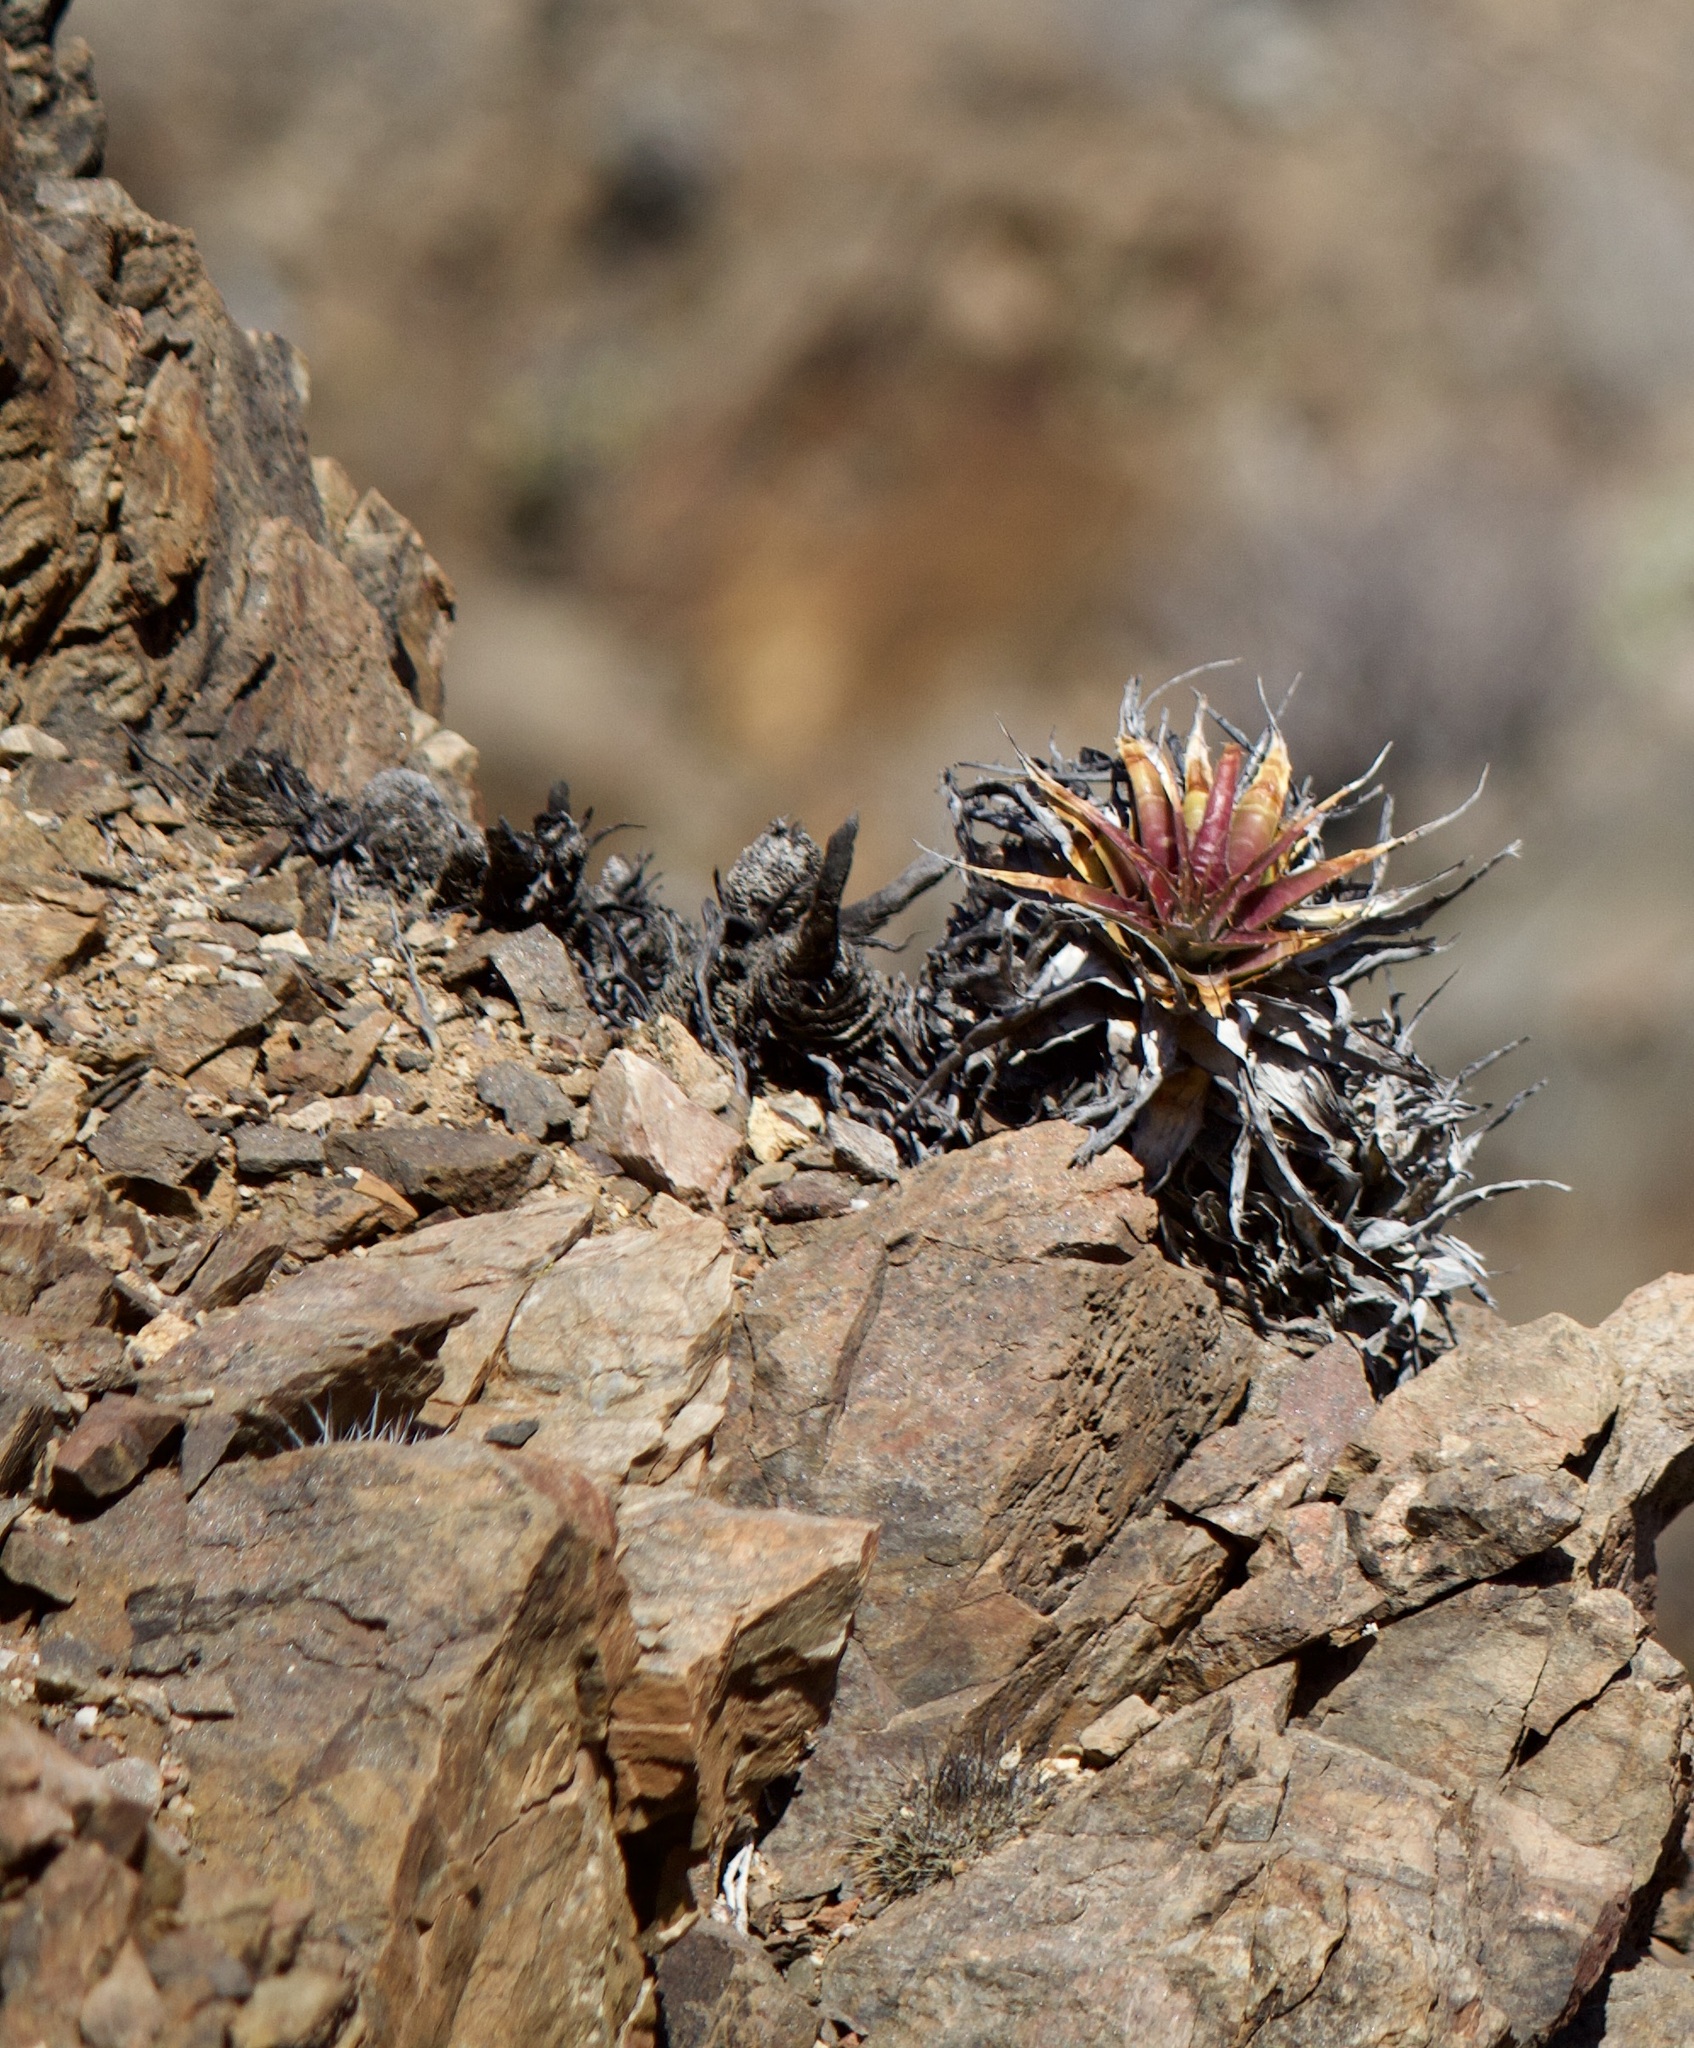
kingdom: Plantae
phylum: Tracheophyta
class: Liliopsida
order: Poales
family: Bromeliaceae
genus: Deuterocohnia
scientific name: Deuterocohnia chrysantha
